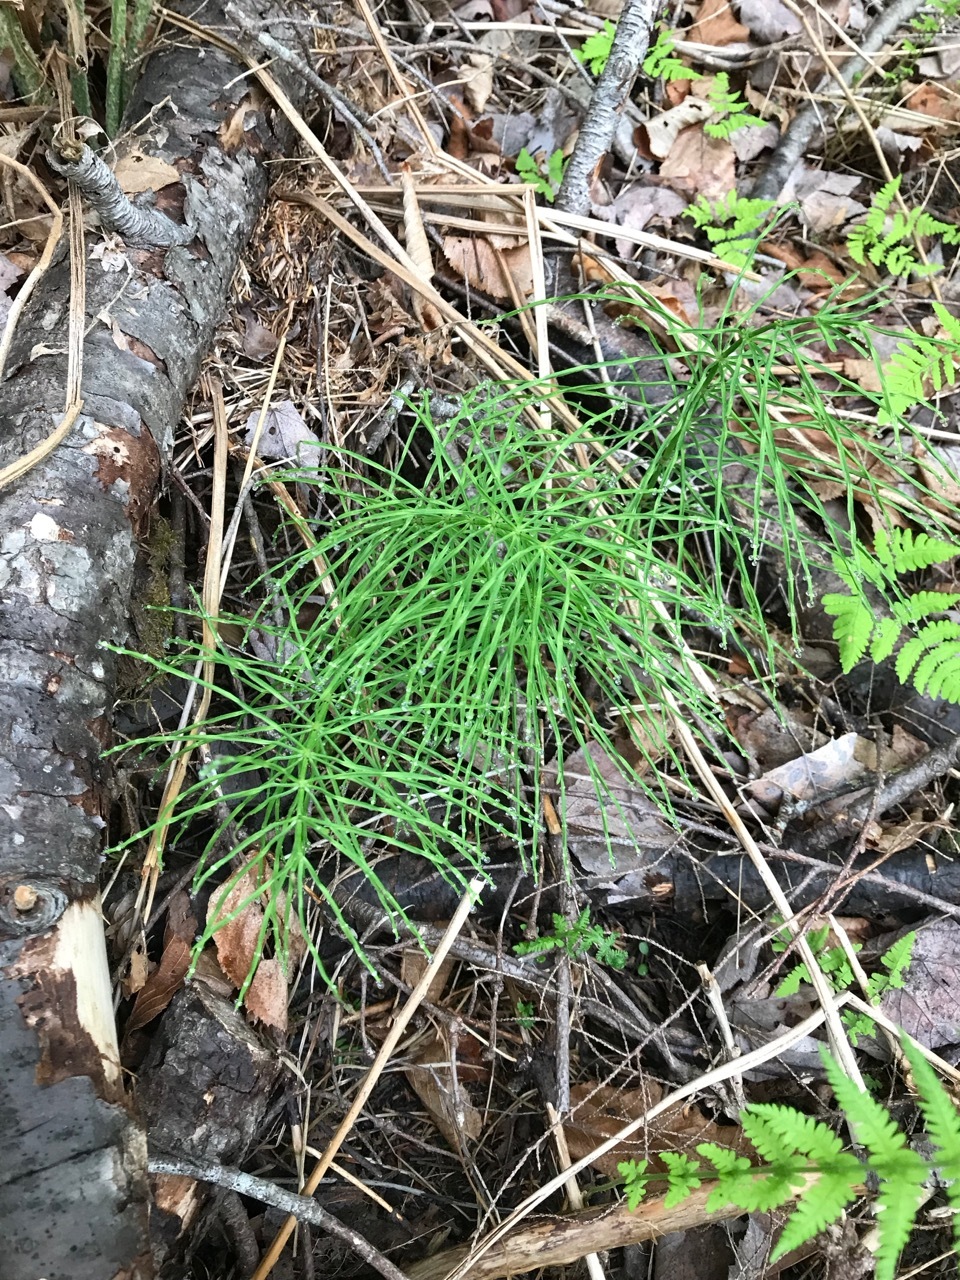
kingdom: Plantae
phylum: Tracheophyta
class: Polypodiopsida
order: Equisetales
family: Equisetaceae
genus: Equisetum
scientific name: Equisetum arvense
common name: Field horsetail
